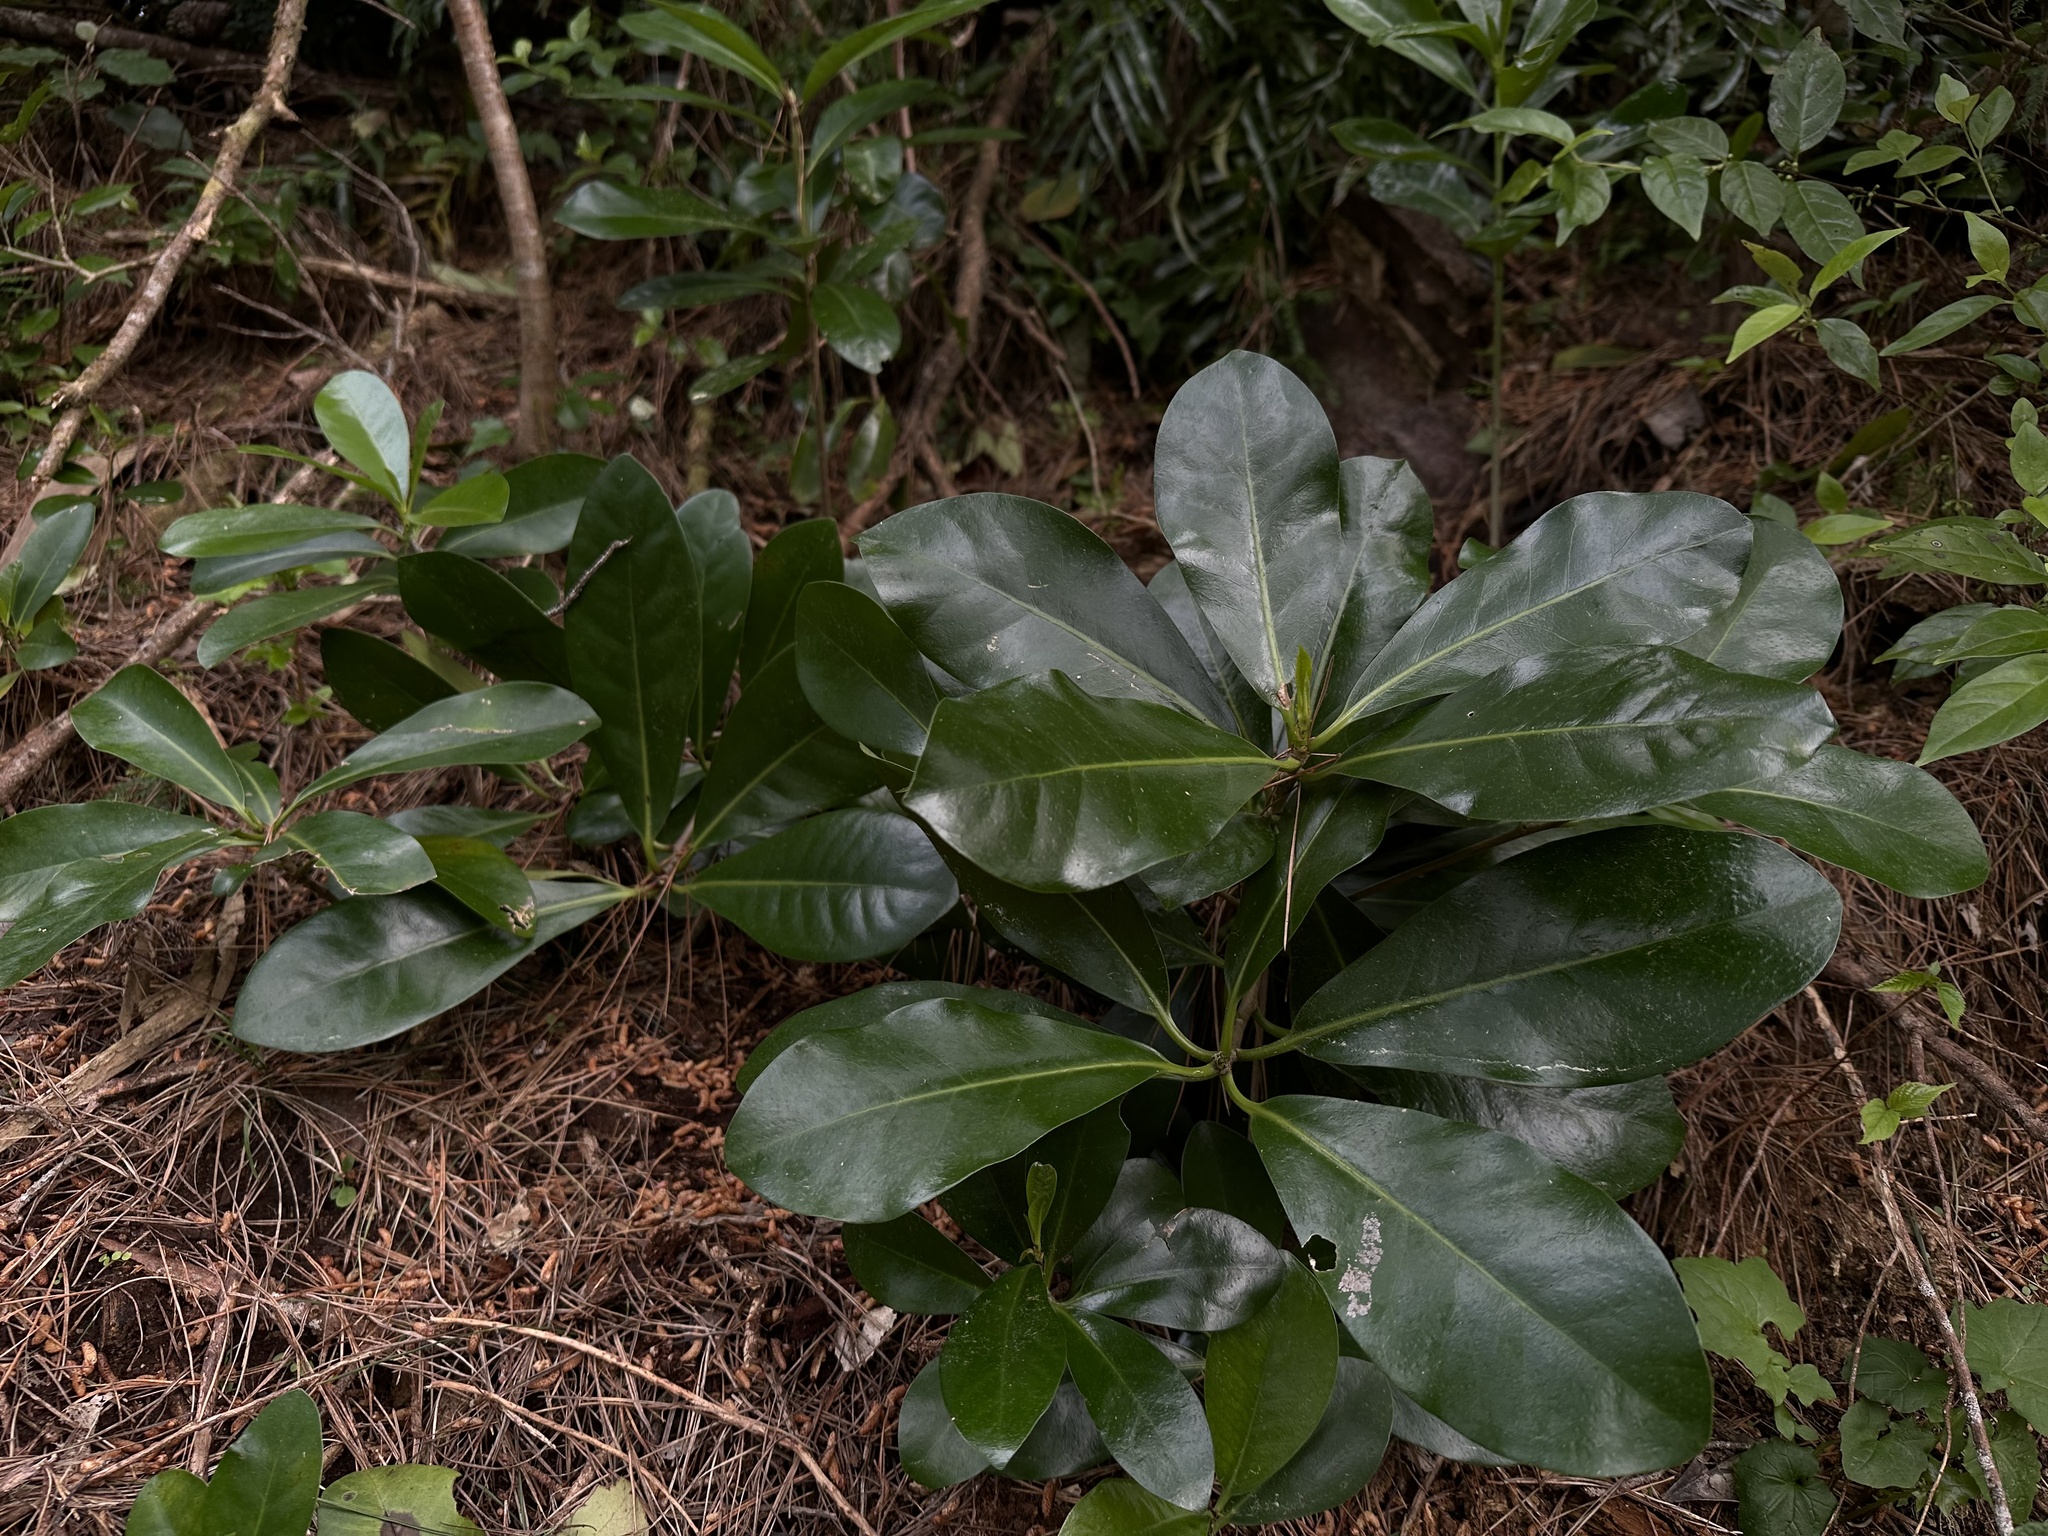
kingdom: Plantae
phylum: Tracheophyta
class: Magnoliopsida
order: Cucurbitales
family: Corynocarpaceae
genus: Corynocarpus
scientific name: Corynocarpus laevigatus
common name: New zealand laurel
